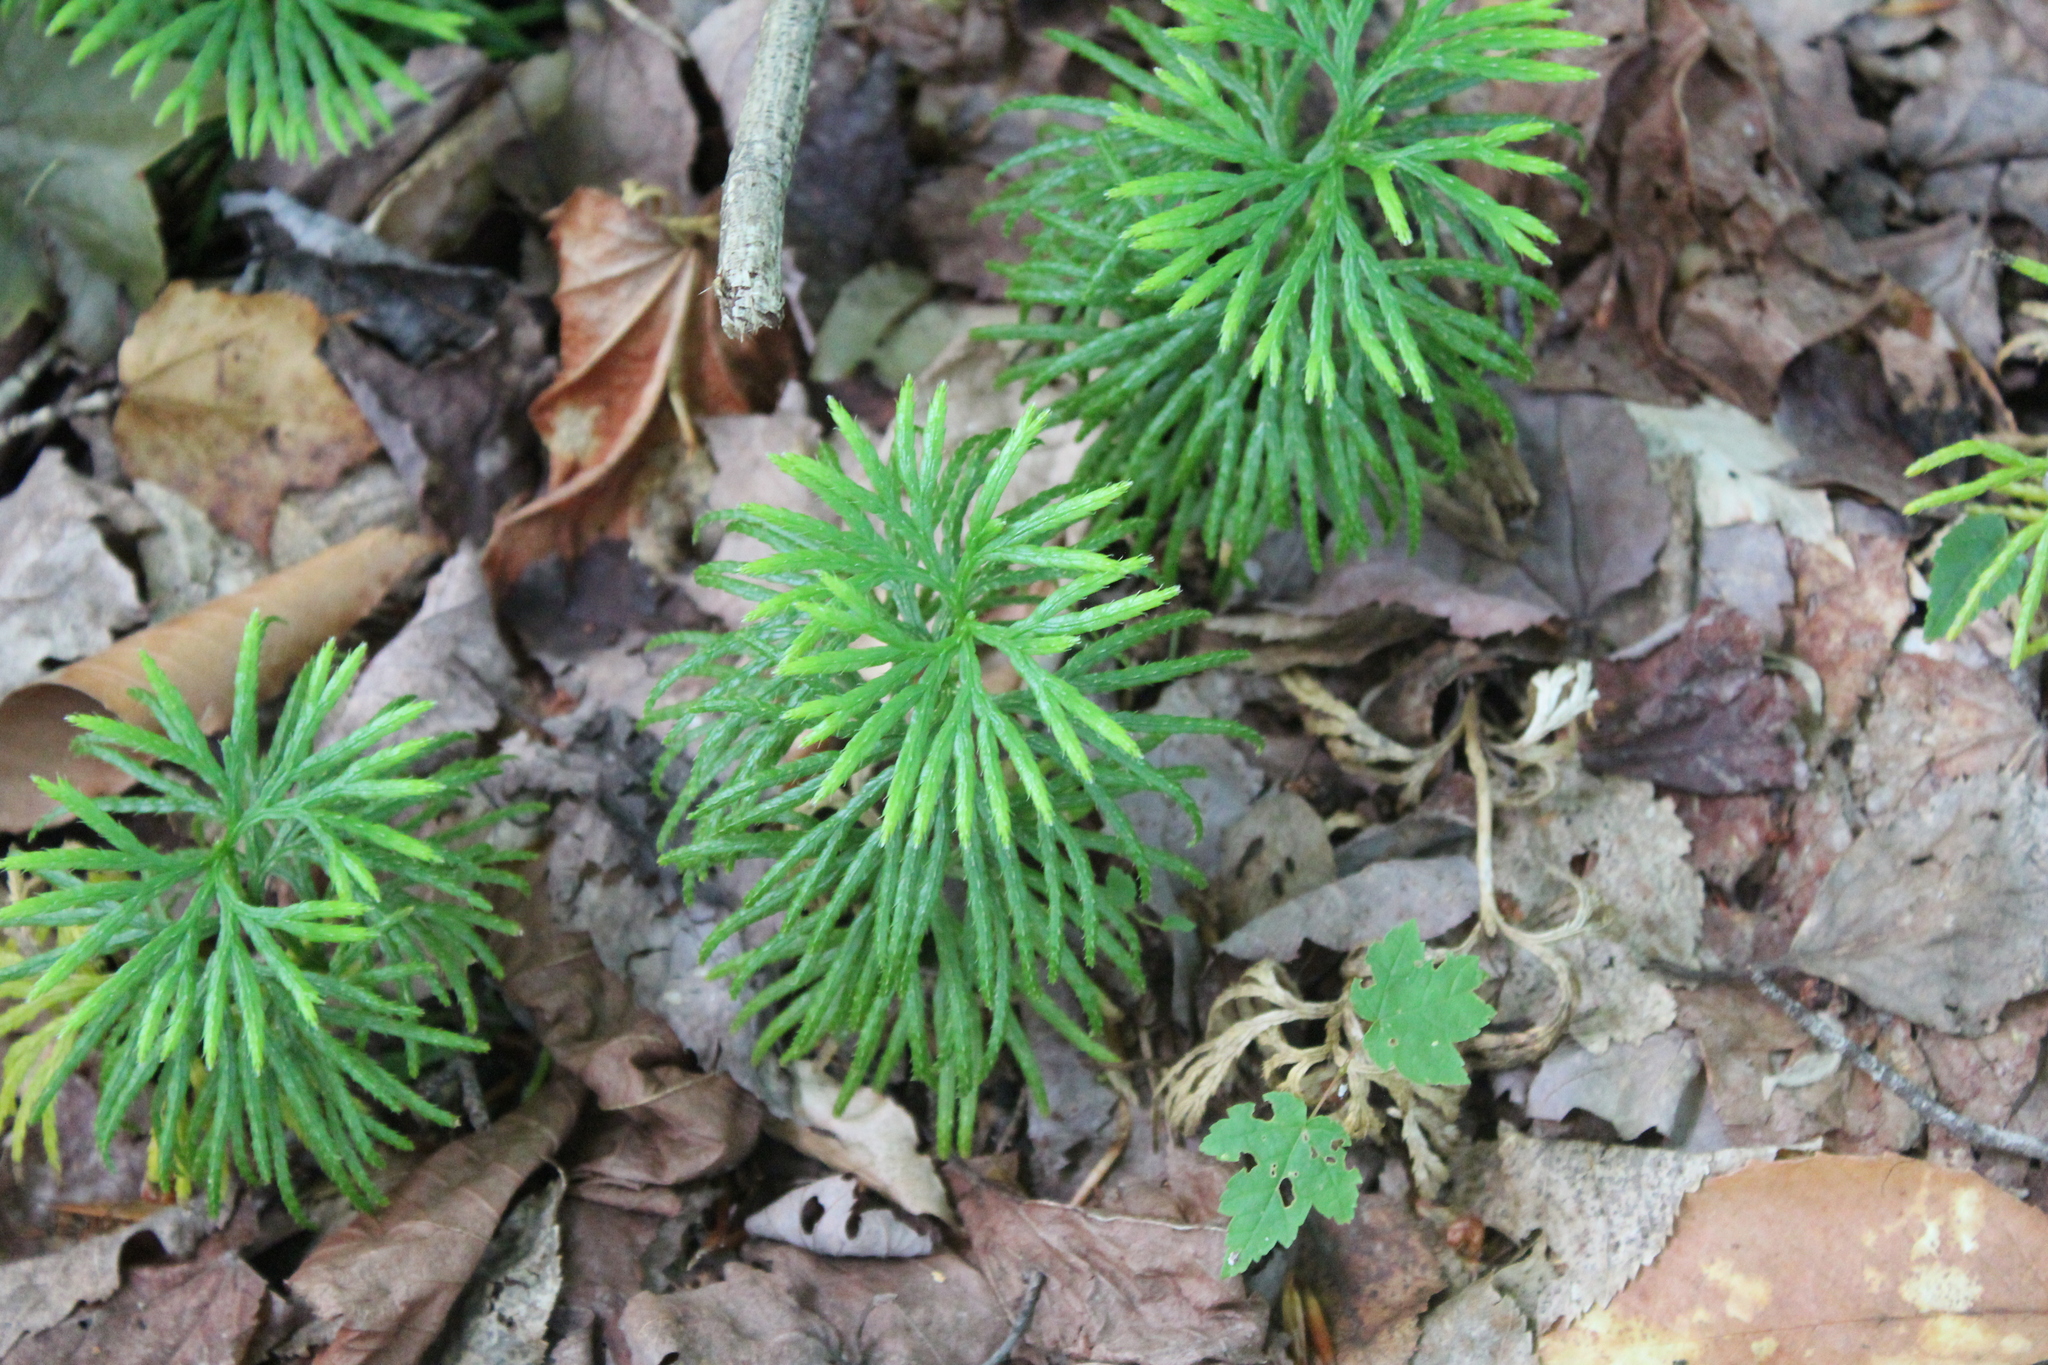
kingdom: Plantae
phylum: Tracheophyta
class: Lycopodiopsida
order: Lycopodiales
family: Lycopodiaceae
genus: Diphasiastrum
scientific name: Diphasiastrum digitatum
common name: Southern running-pine
